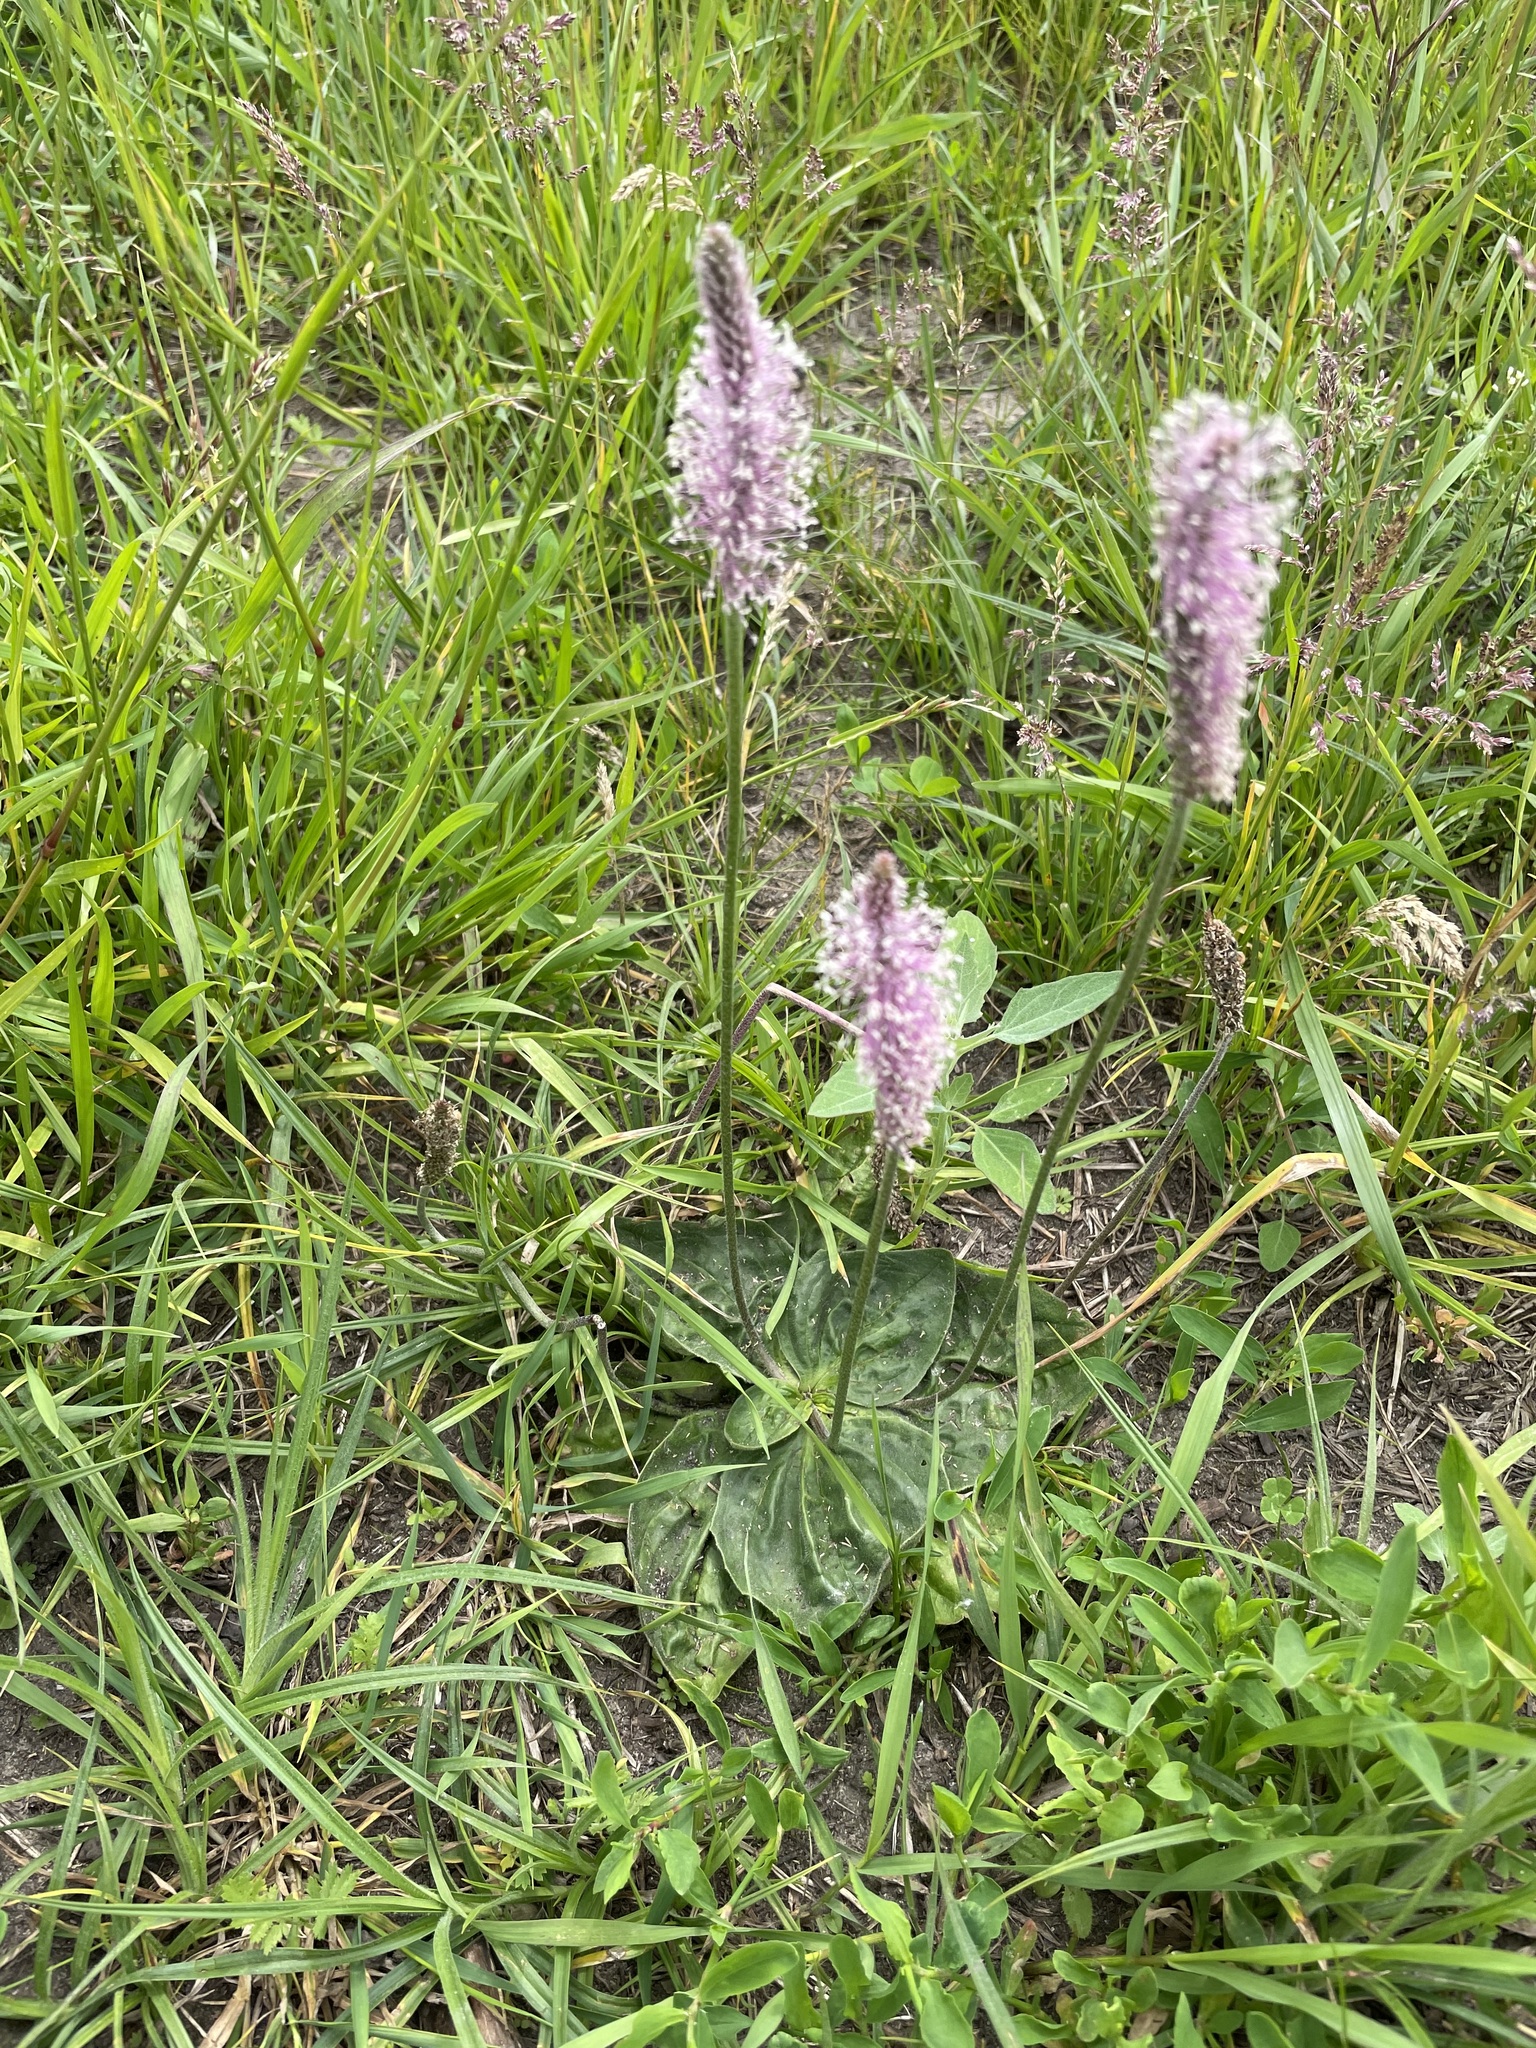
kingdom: Plantae
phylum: Tracheophyta
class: Magnoliopsida
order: Lamiales
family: Plantaginaceae
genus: Plantago
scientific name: Plantago media
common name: Hoary plantain
